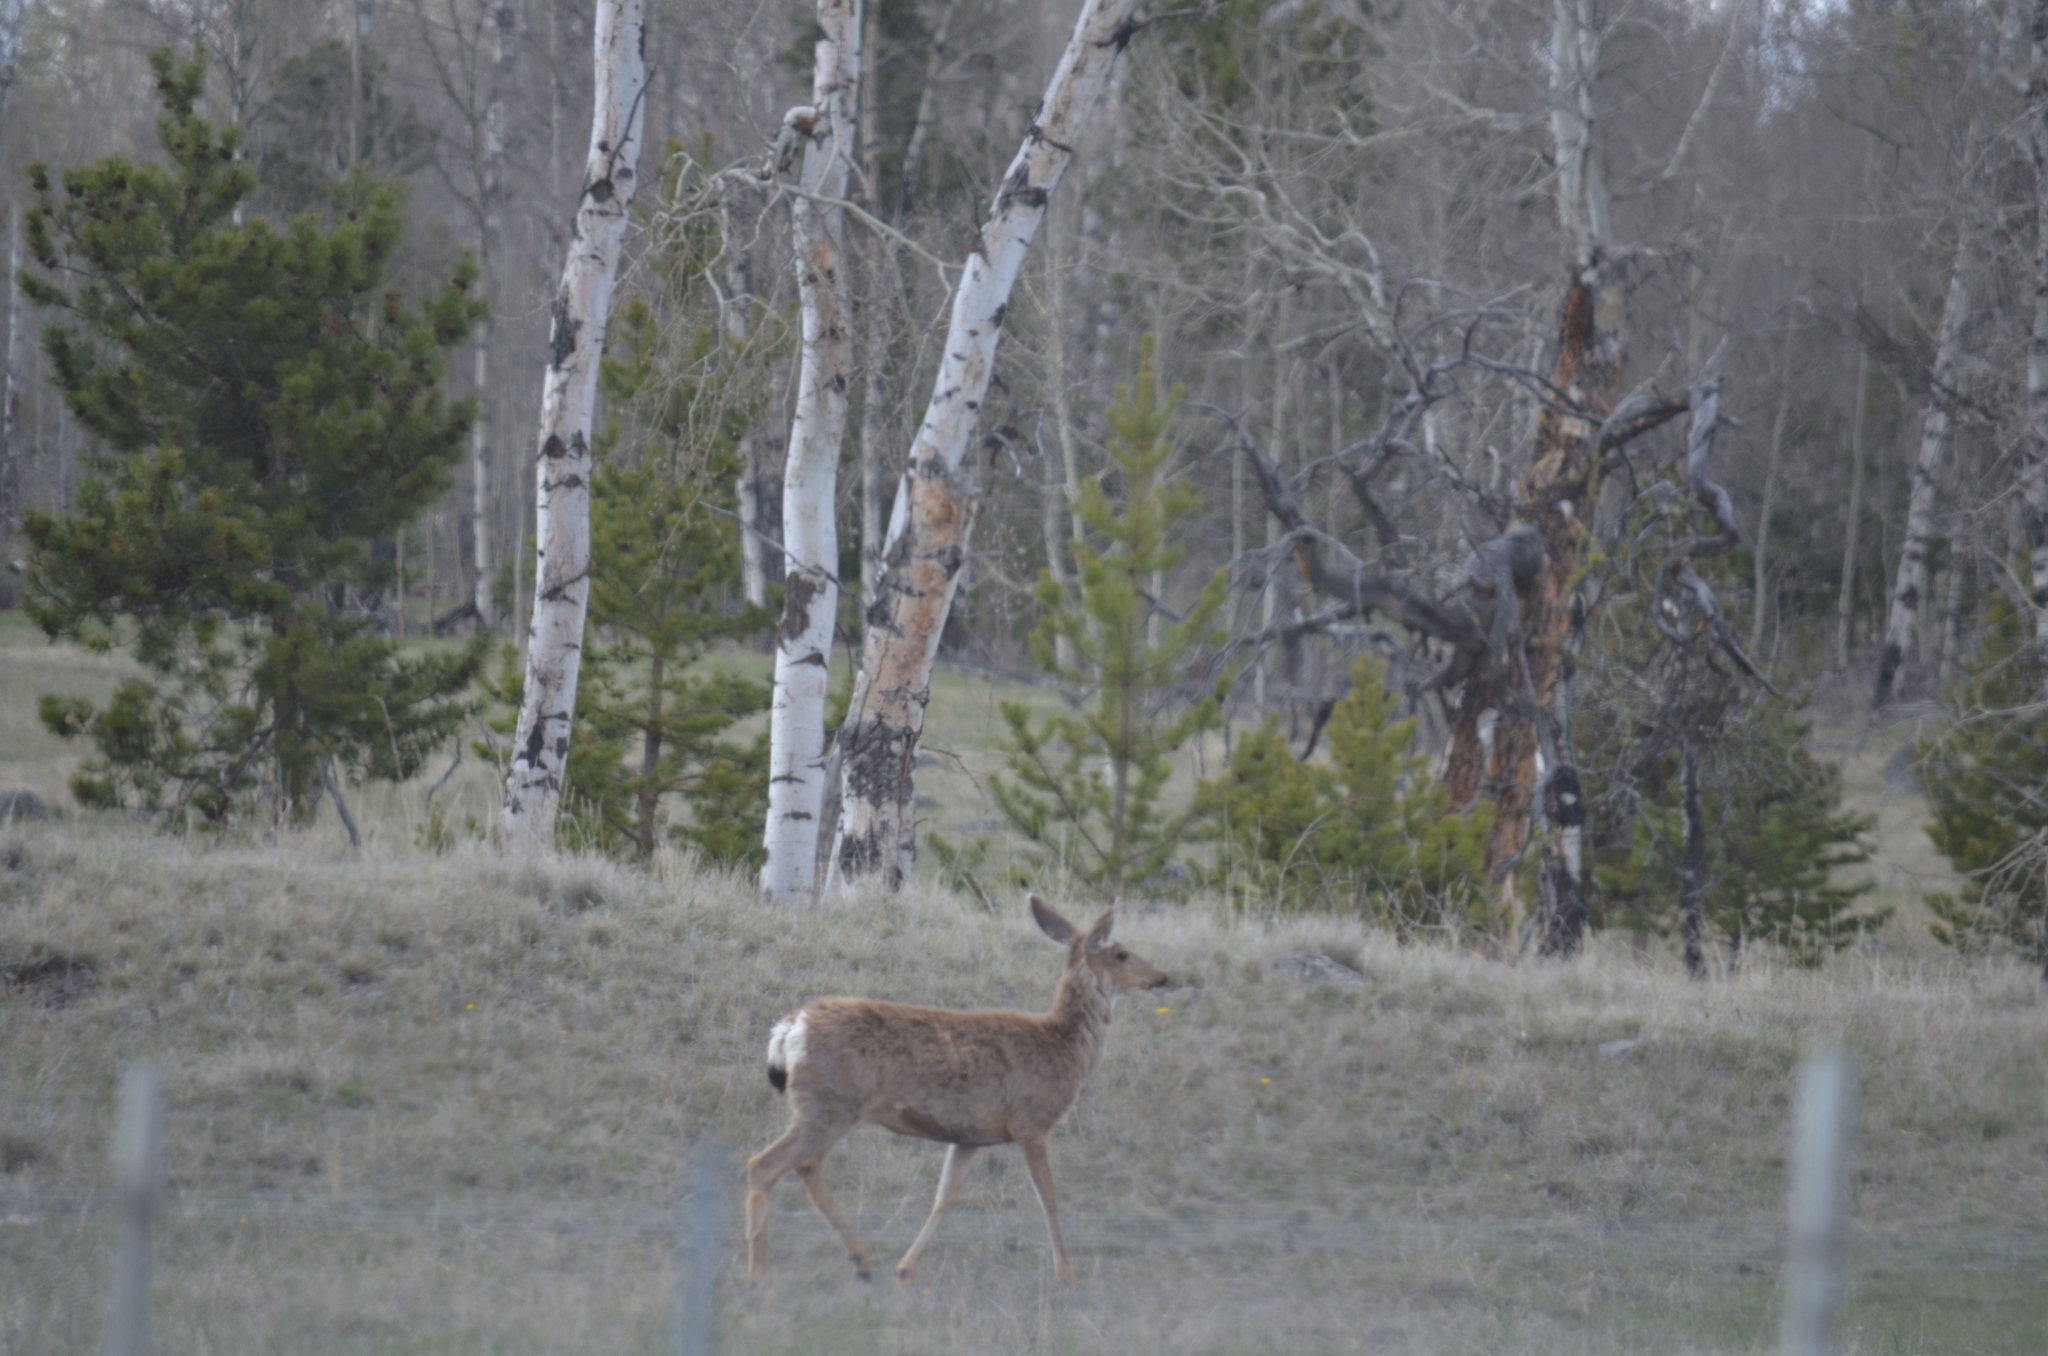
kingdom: Animalia
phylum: Chordata
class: Mammalia
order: Artiodactyla
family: Cervidae
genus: Odocoileus
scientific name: Odocoileus hemionus
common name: Mule deer
